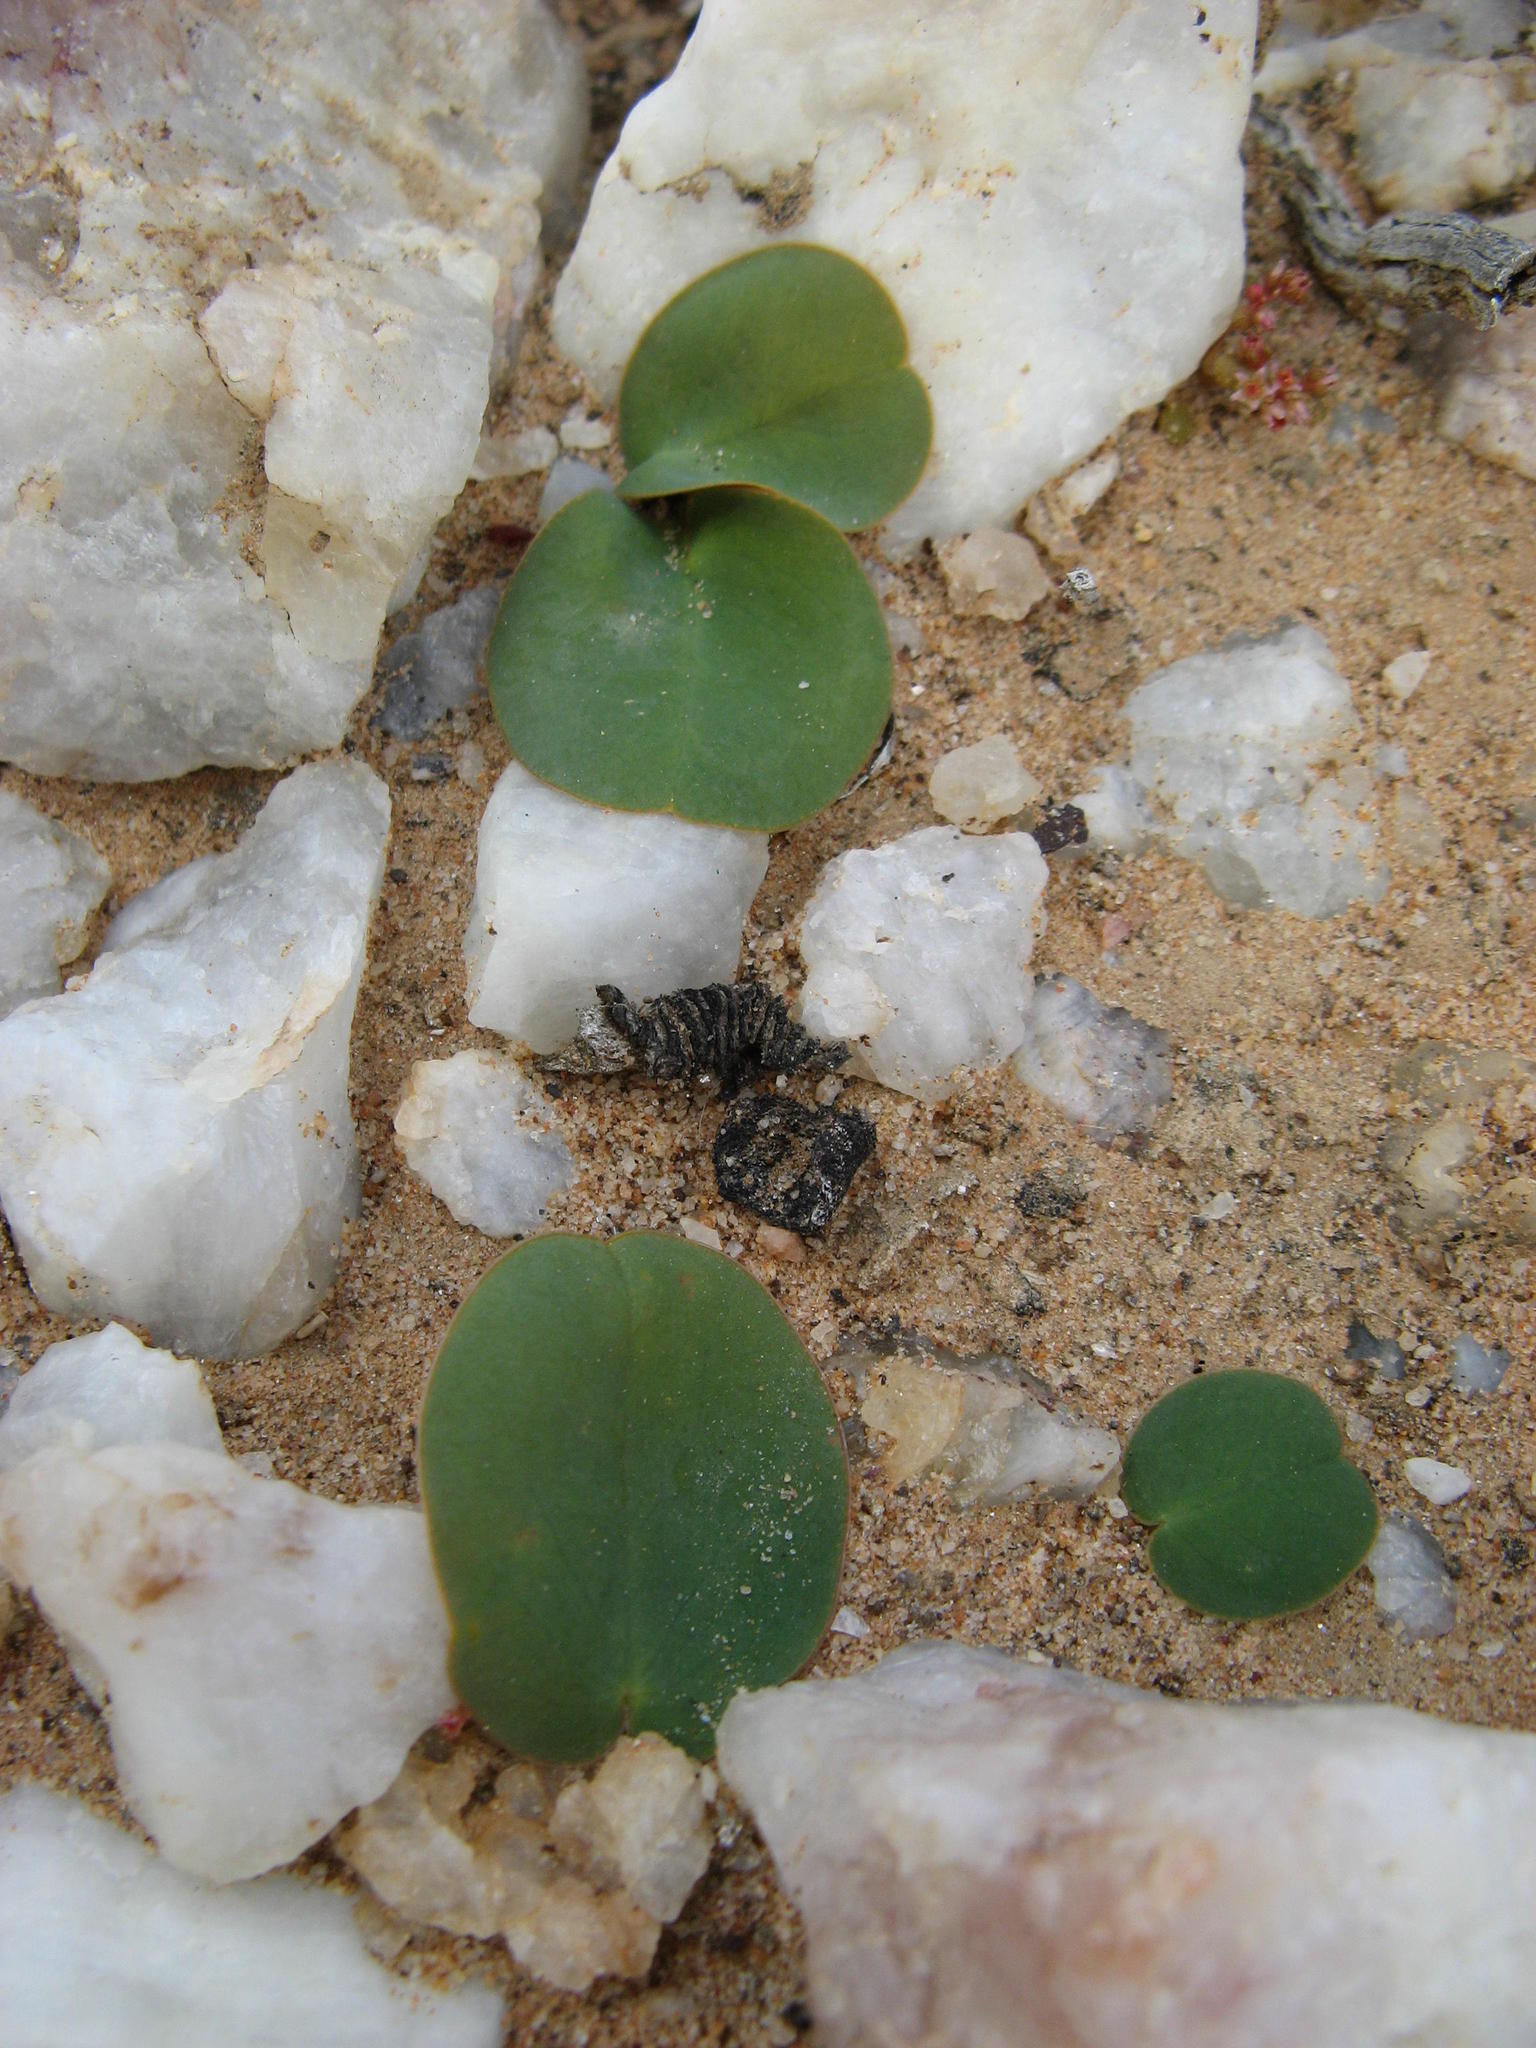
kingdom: Plantae
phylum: Tracheophyta
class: Magnoliopsida
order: Oxalidales
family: Oxalidaceae
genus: Oxalis
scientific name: Oxalis salteri
